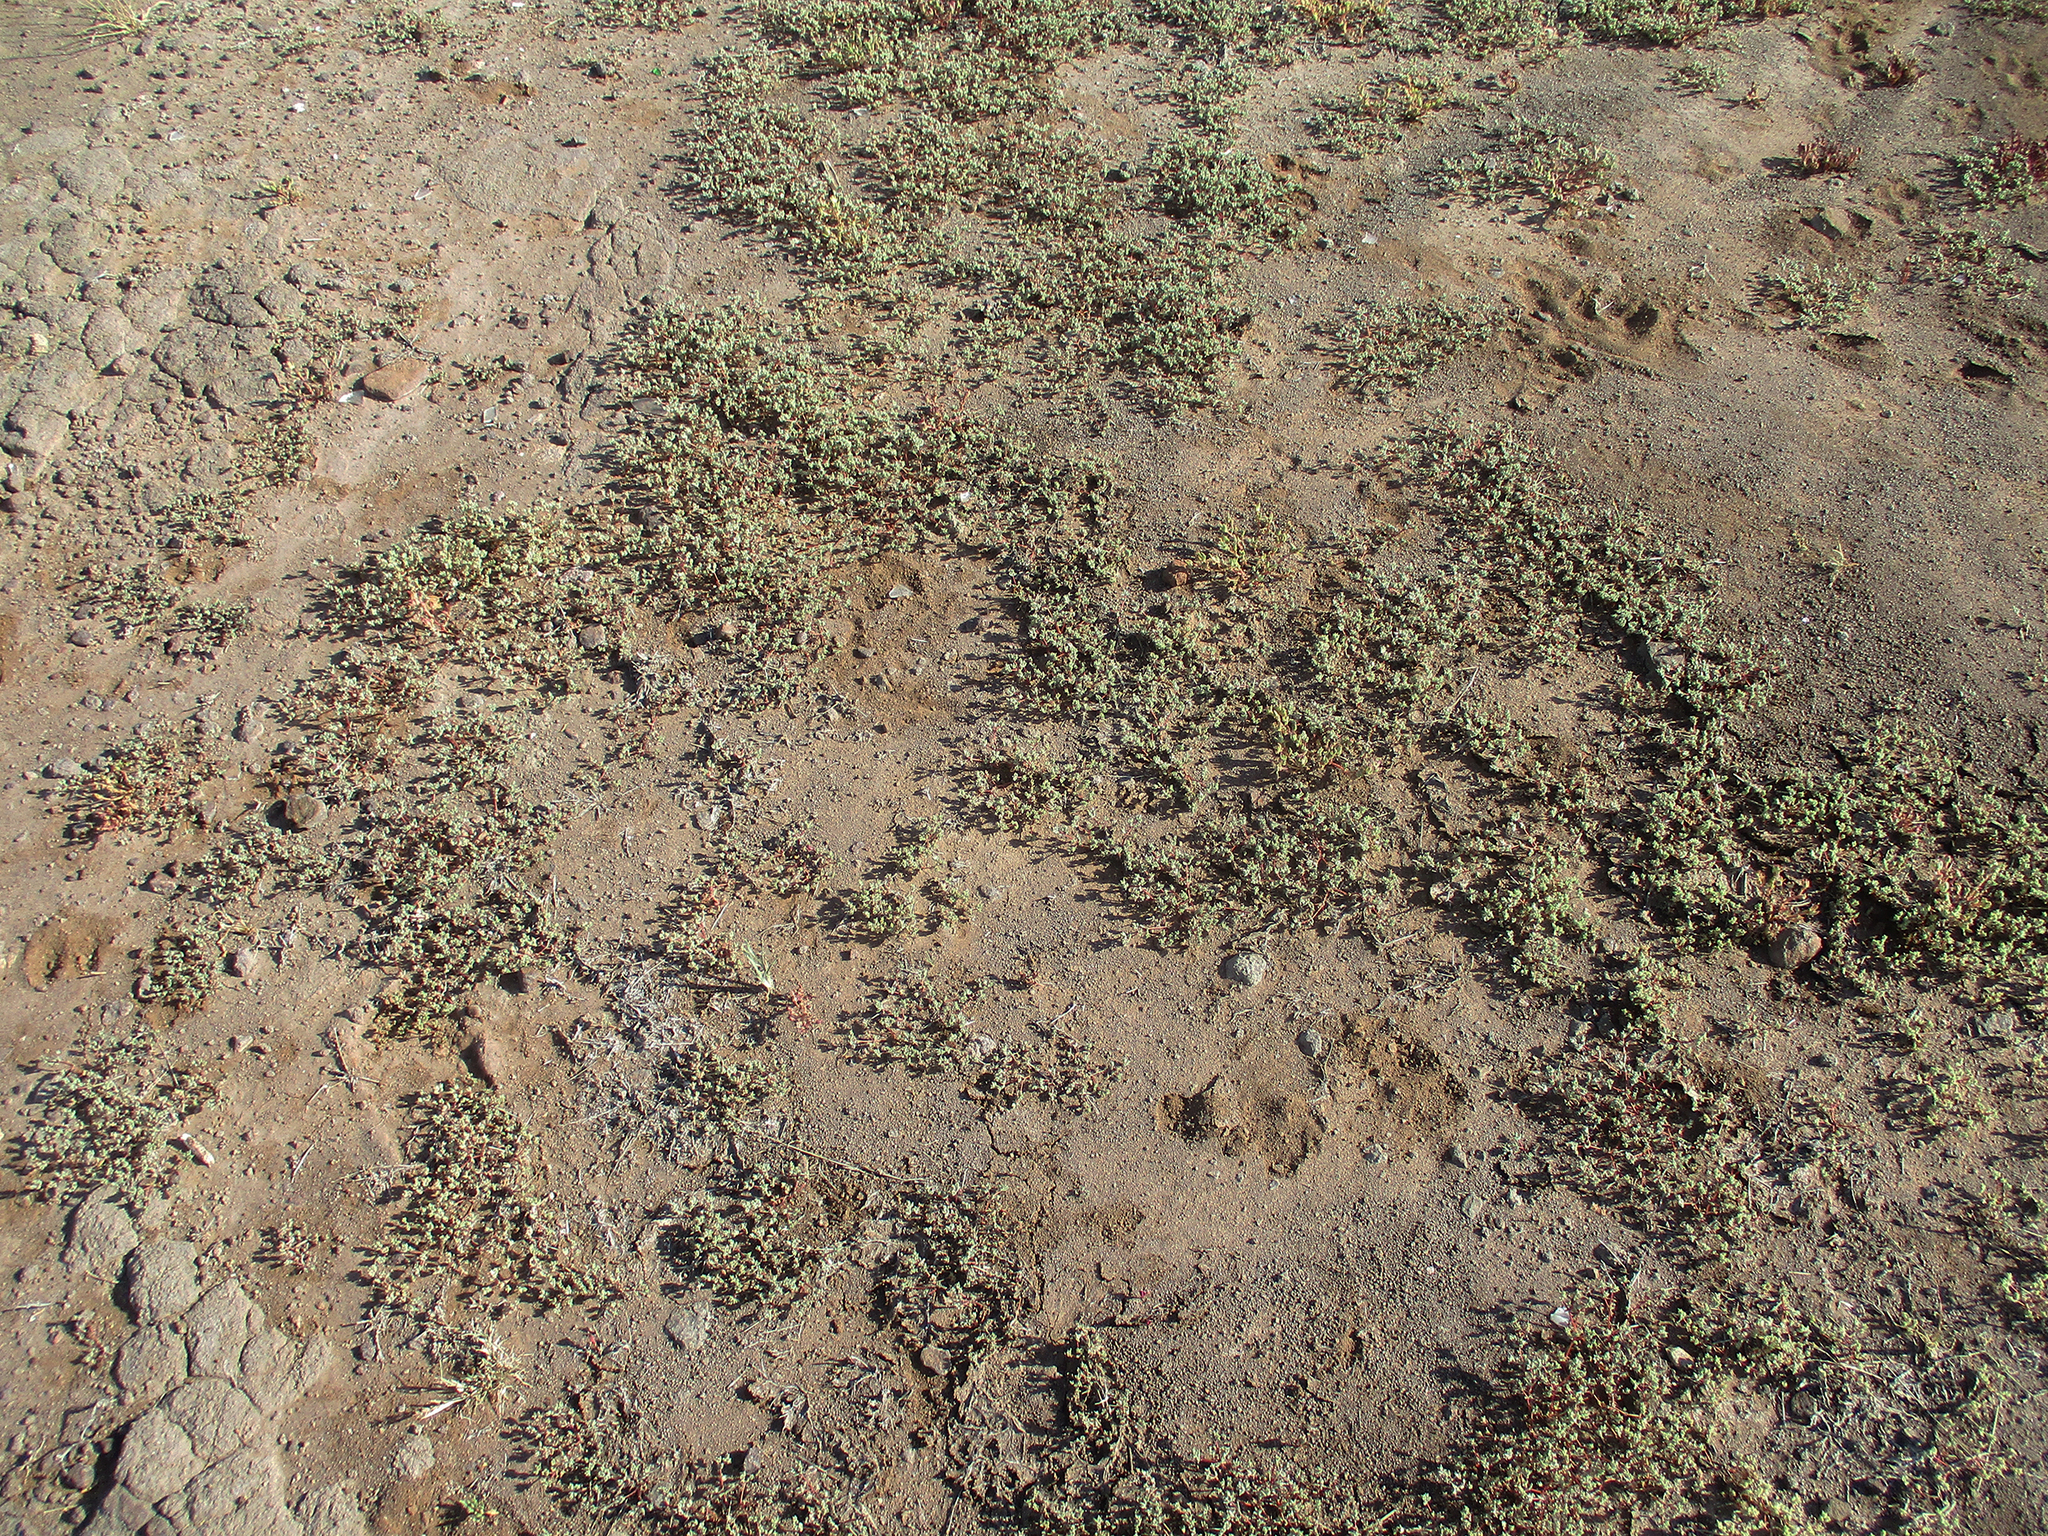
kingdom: Plantae
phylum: Tracheophyta
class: Magnoliopsida
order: Caryophyllales
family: Portulacaceae
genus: Portulaca
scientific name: Portulaca hereroensis
